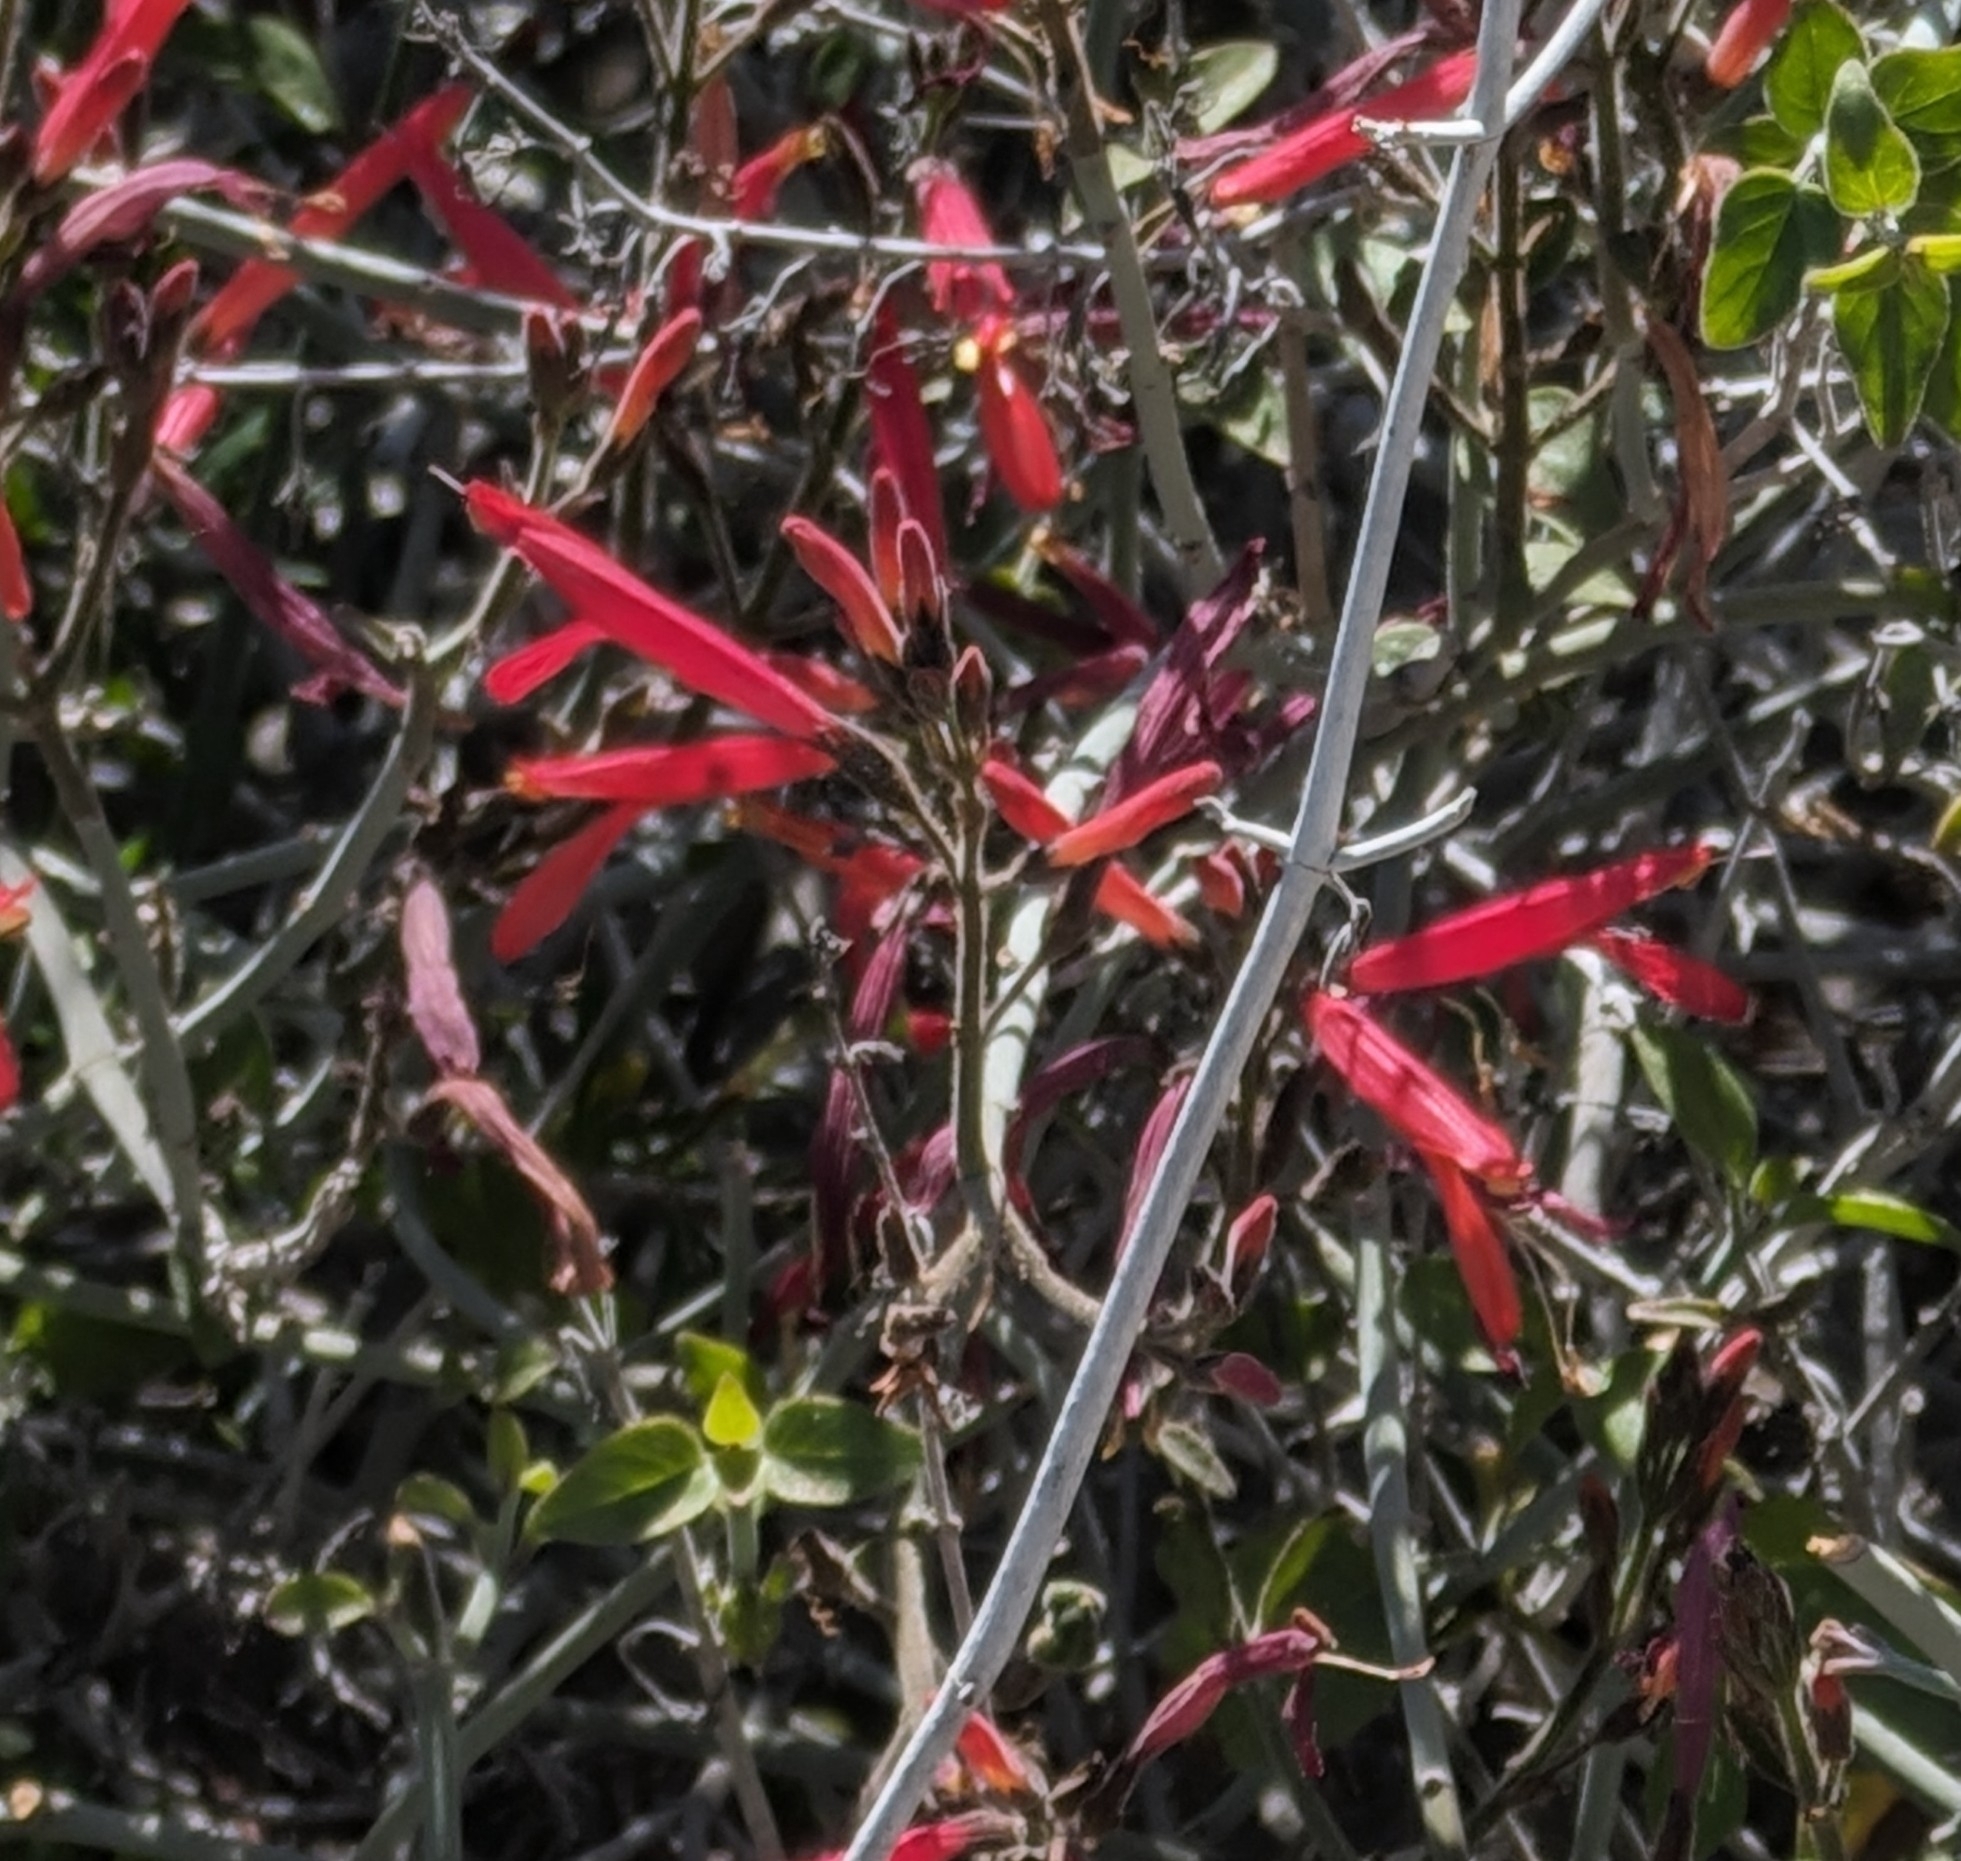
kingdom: Plantae
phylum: Tracheophyta
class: Magnoliopsida
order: Lamiales
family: Acanthaceae
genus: Justicia
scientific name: Justicia californica
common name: Chuparosa-honeysuckle
